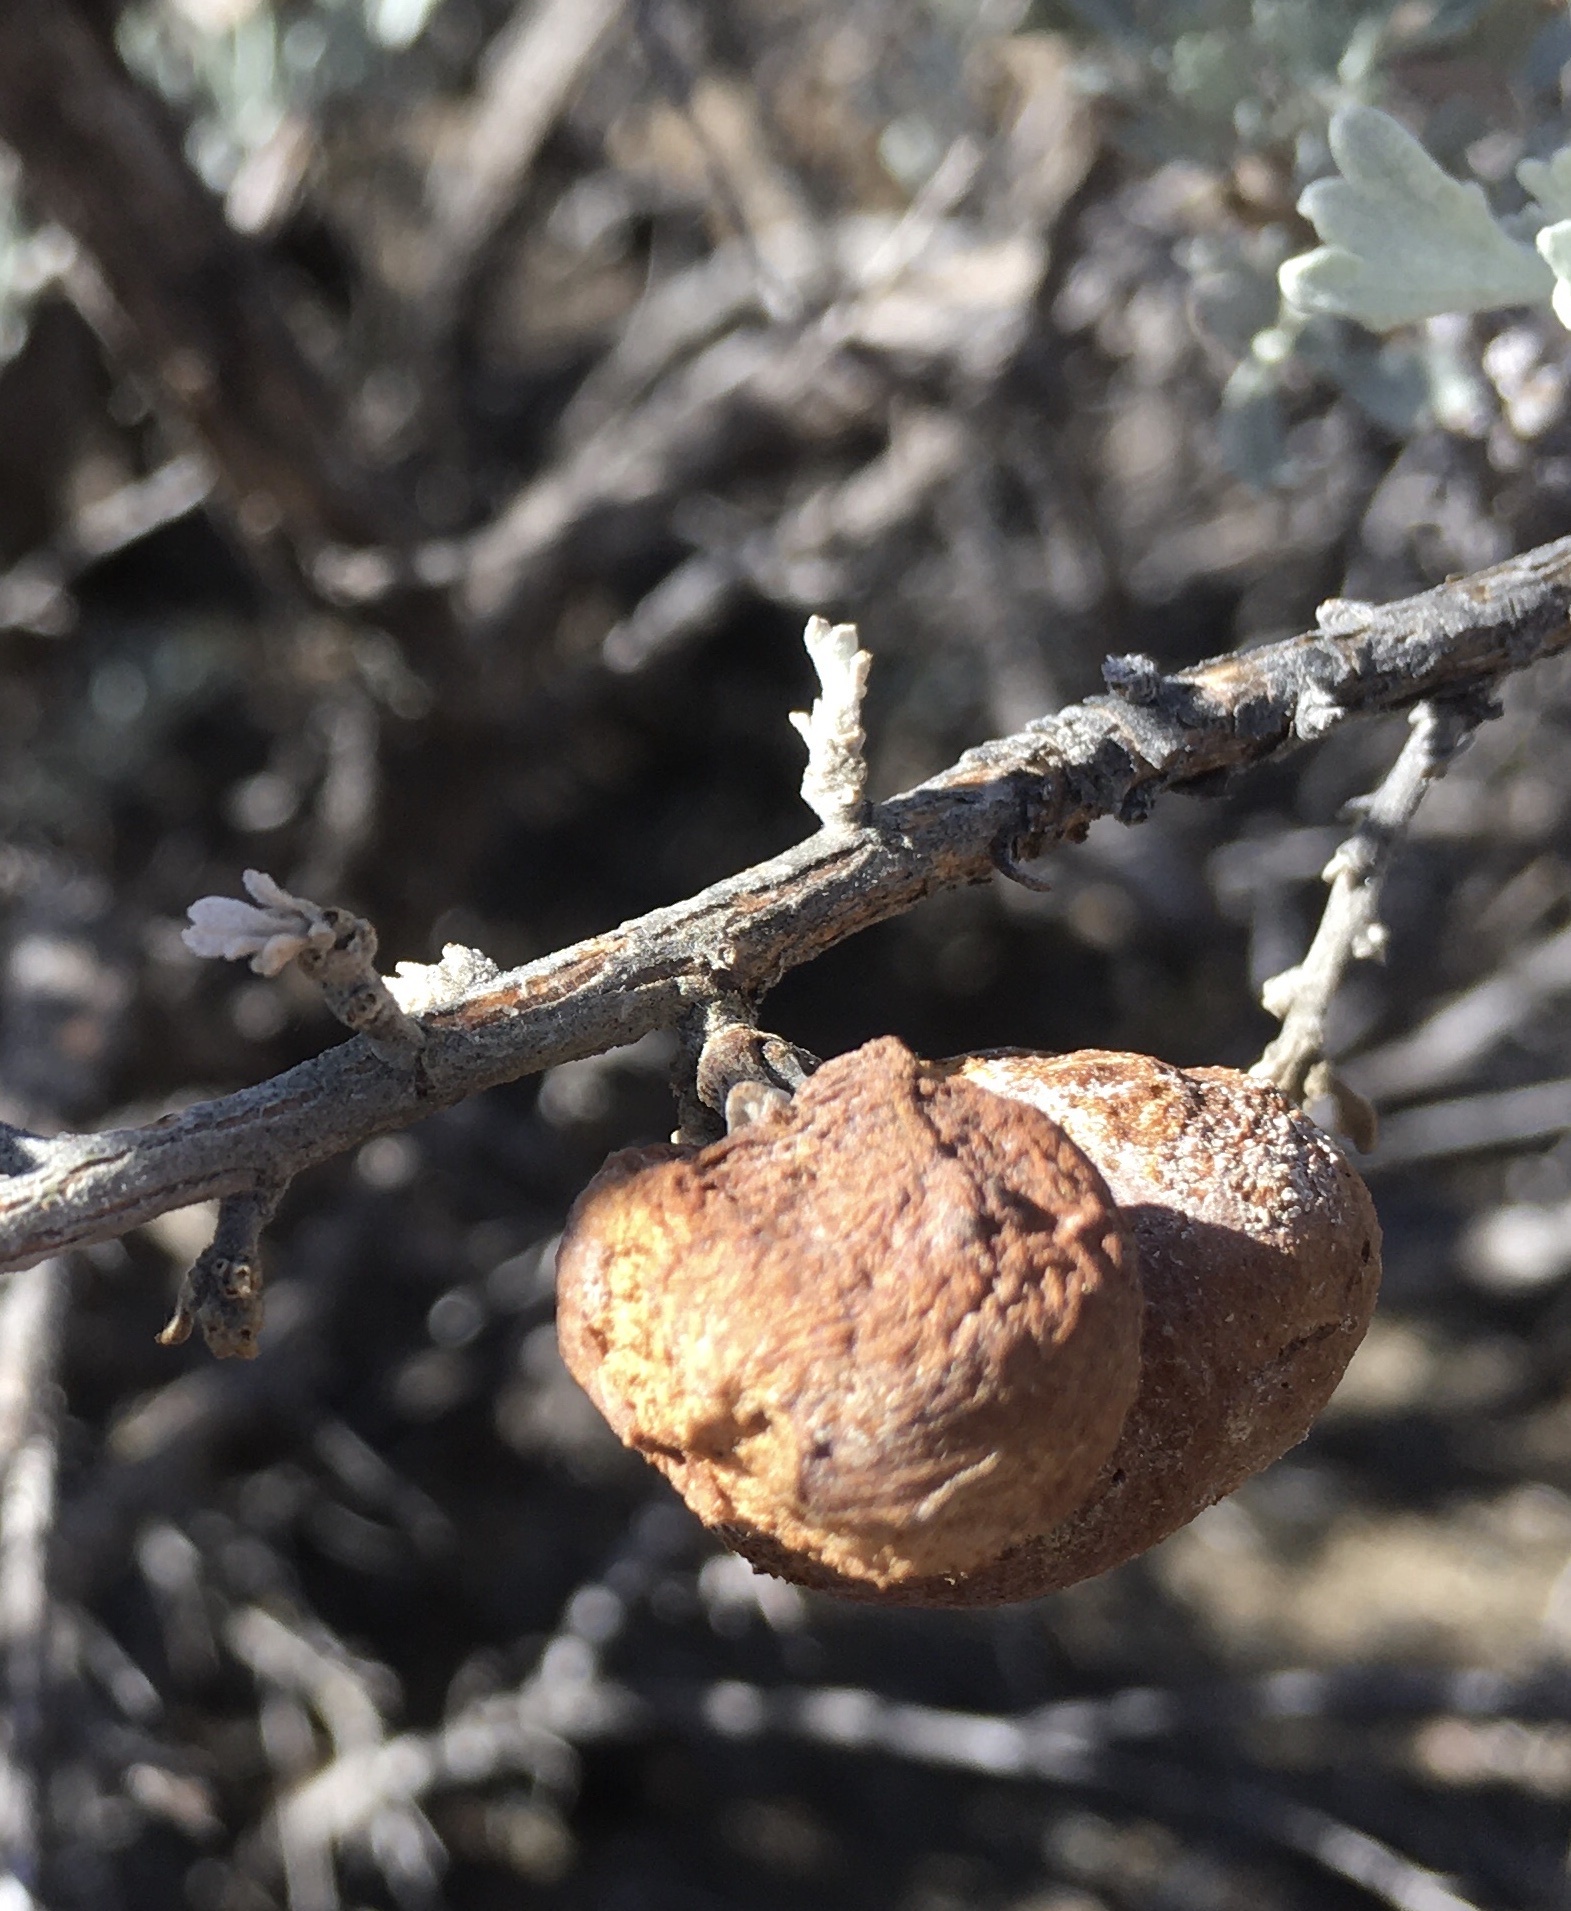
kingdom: Animalia
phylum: Arthropoda
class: Insecta
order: Diptera
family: Cecidomyiidae
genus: Rhopalomyia
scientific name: Rhopalomyia pomum
